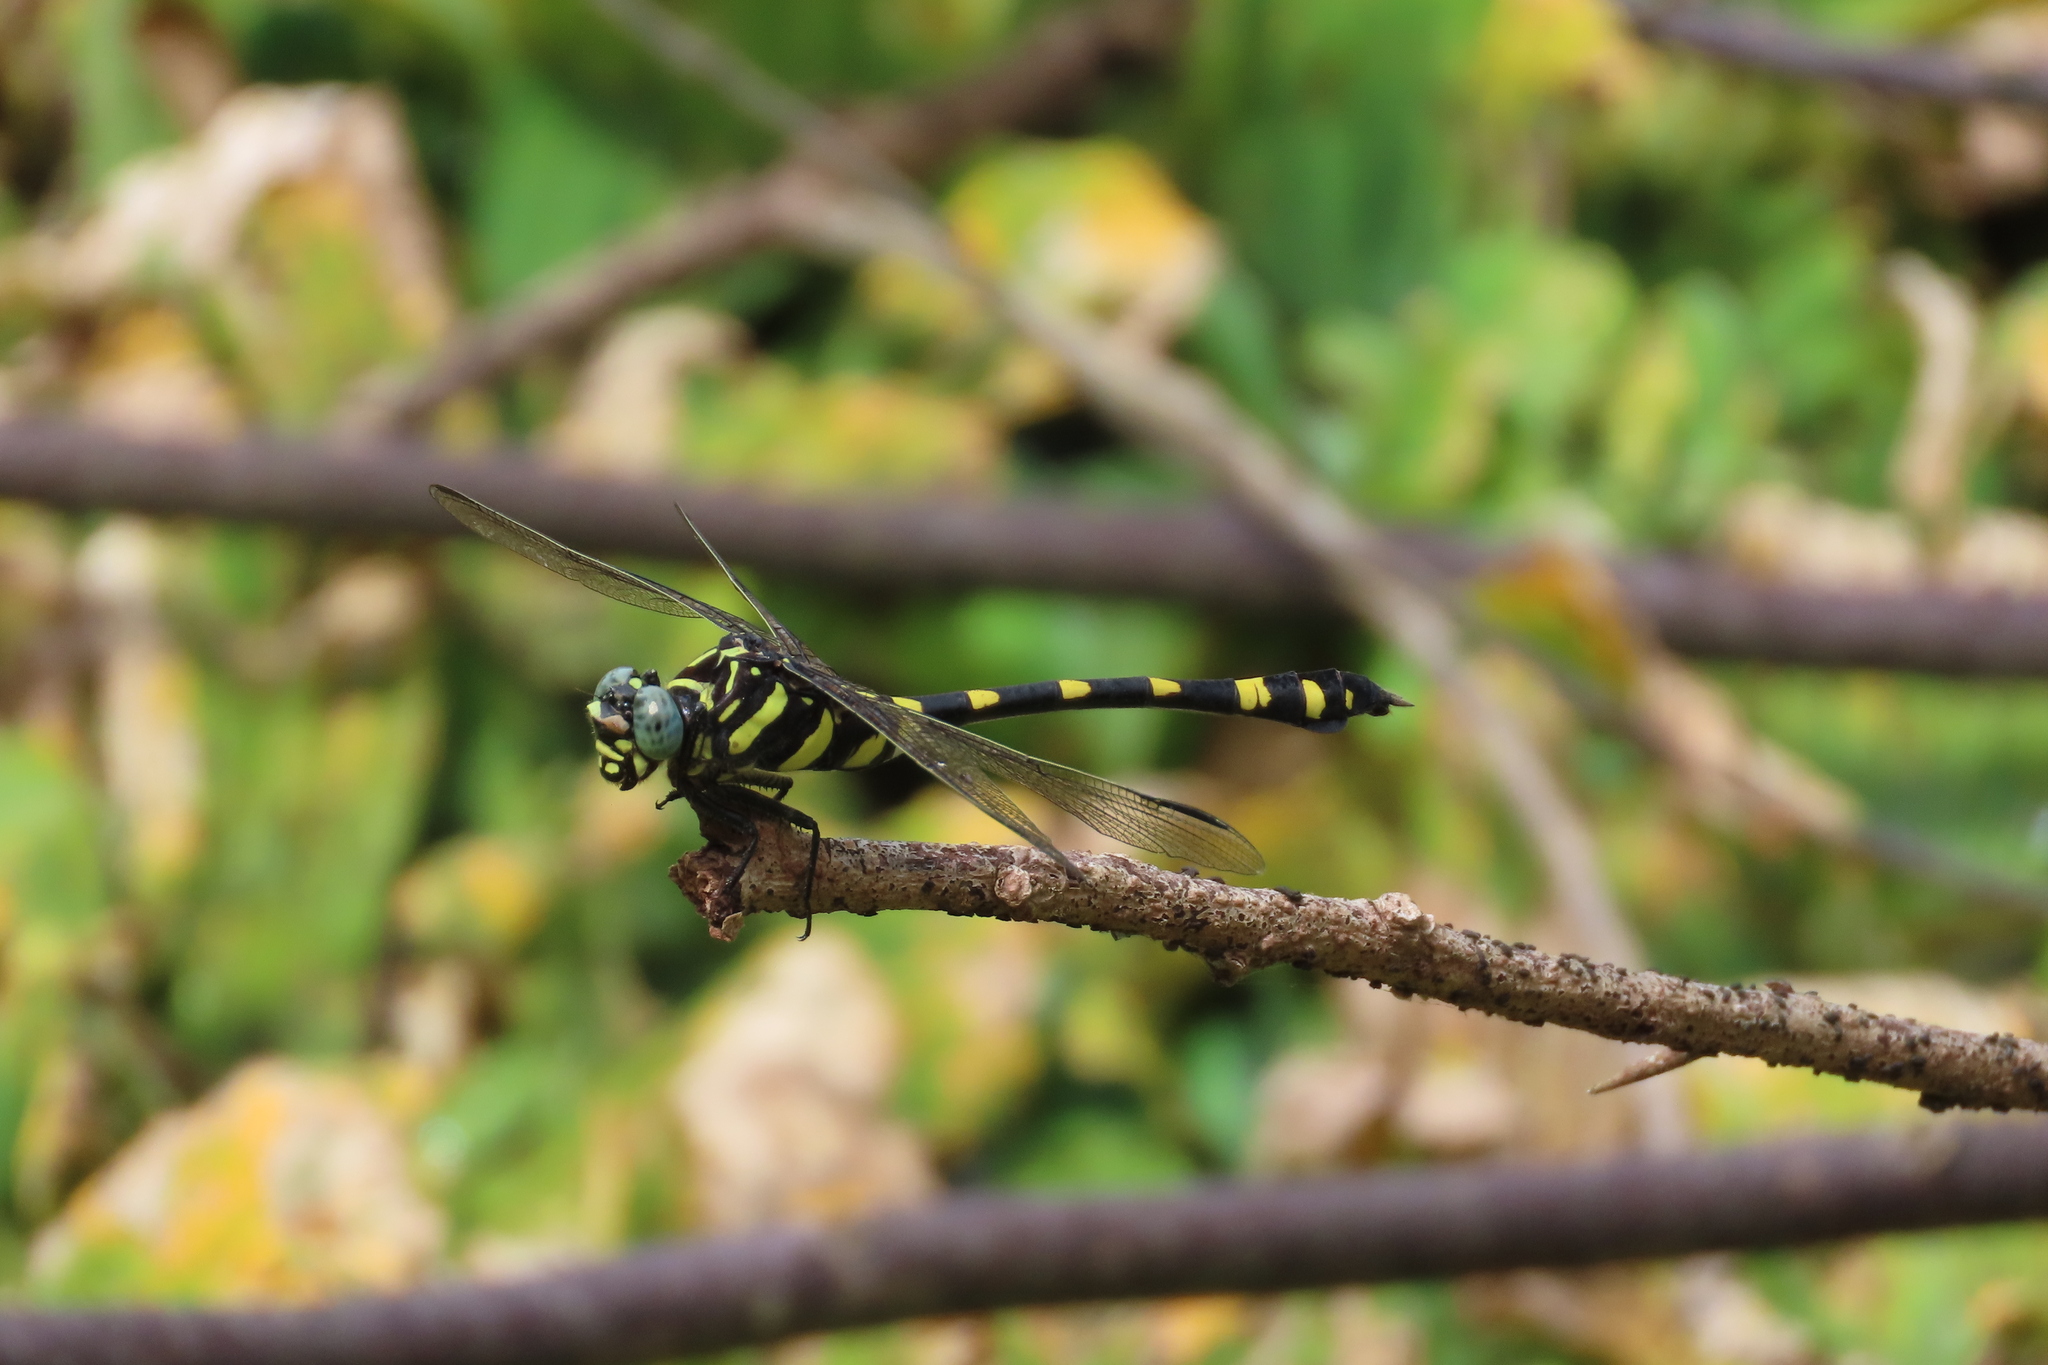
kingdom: Animalia
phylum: Arthropoda
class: Insecta
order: Odonata
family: Gomphidae
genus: Ictinogomphus
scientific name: Ictinogomphus rapax
